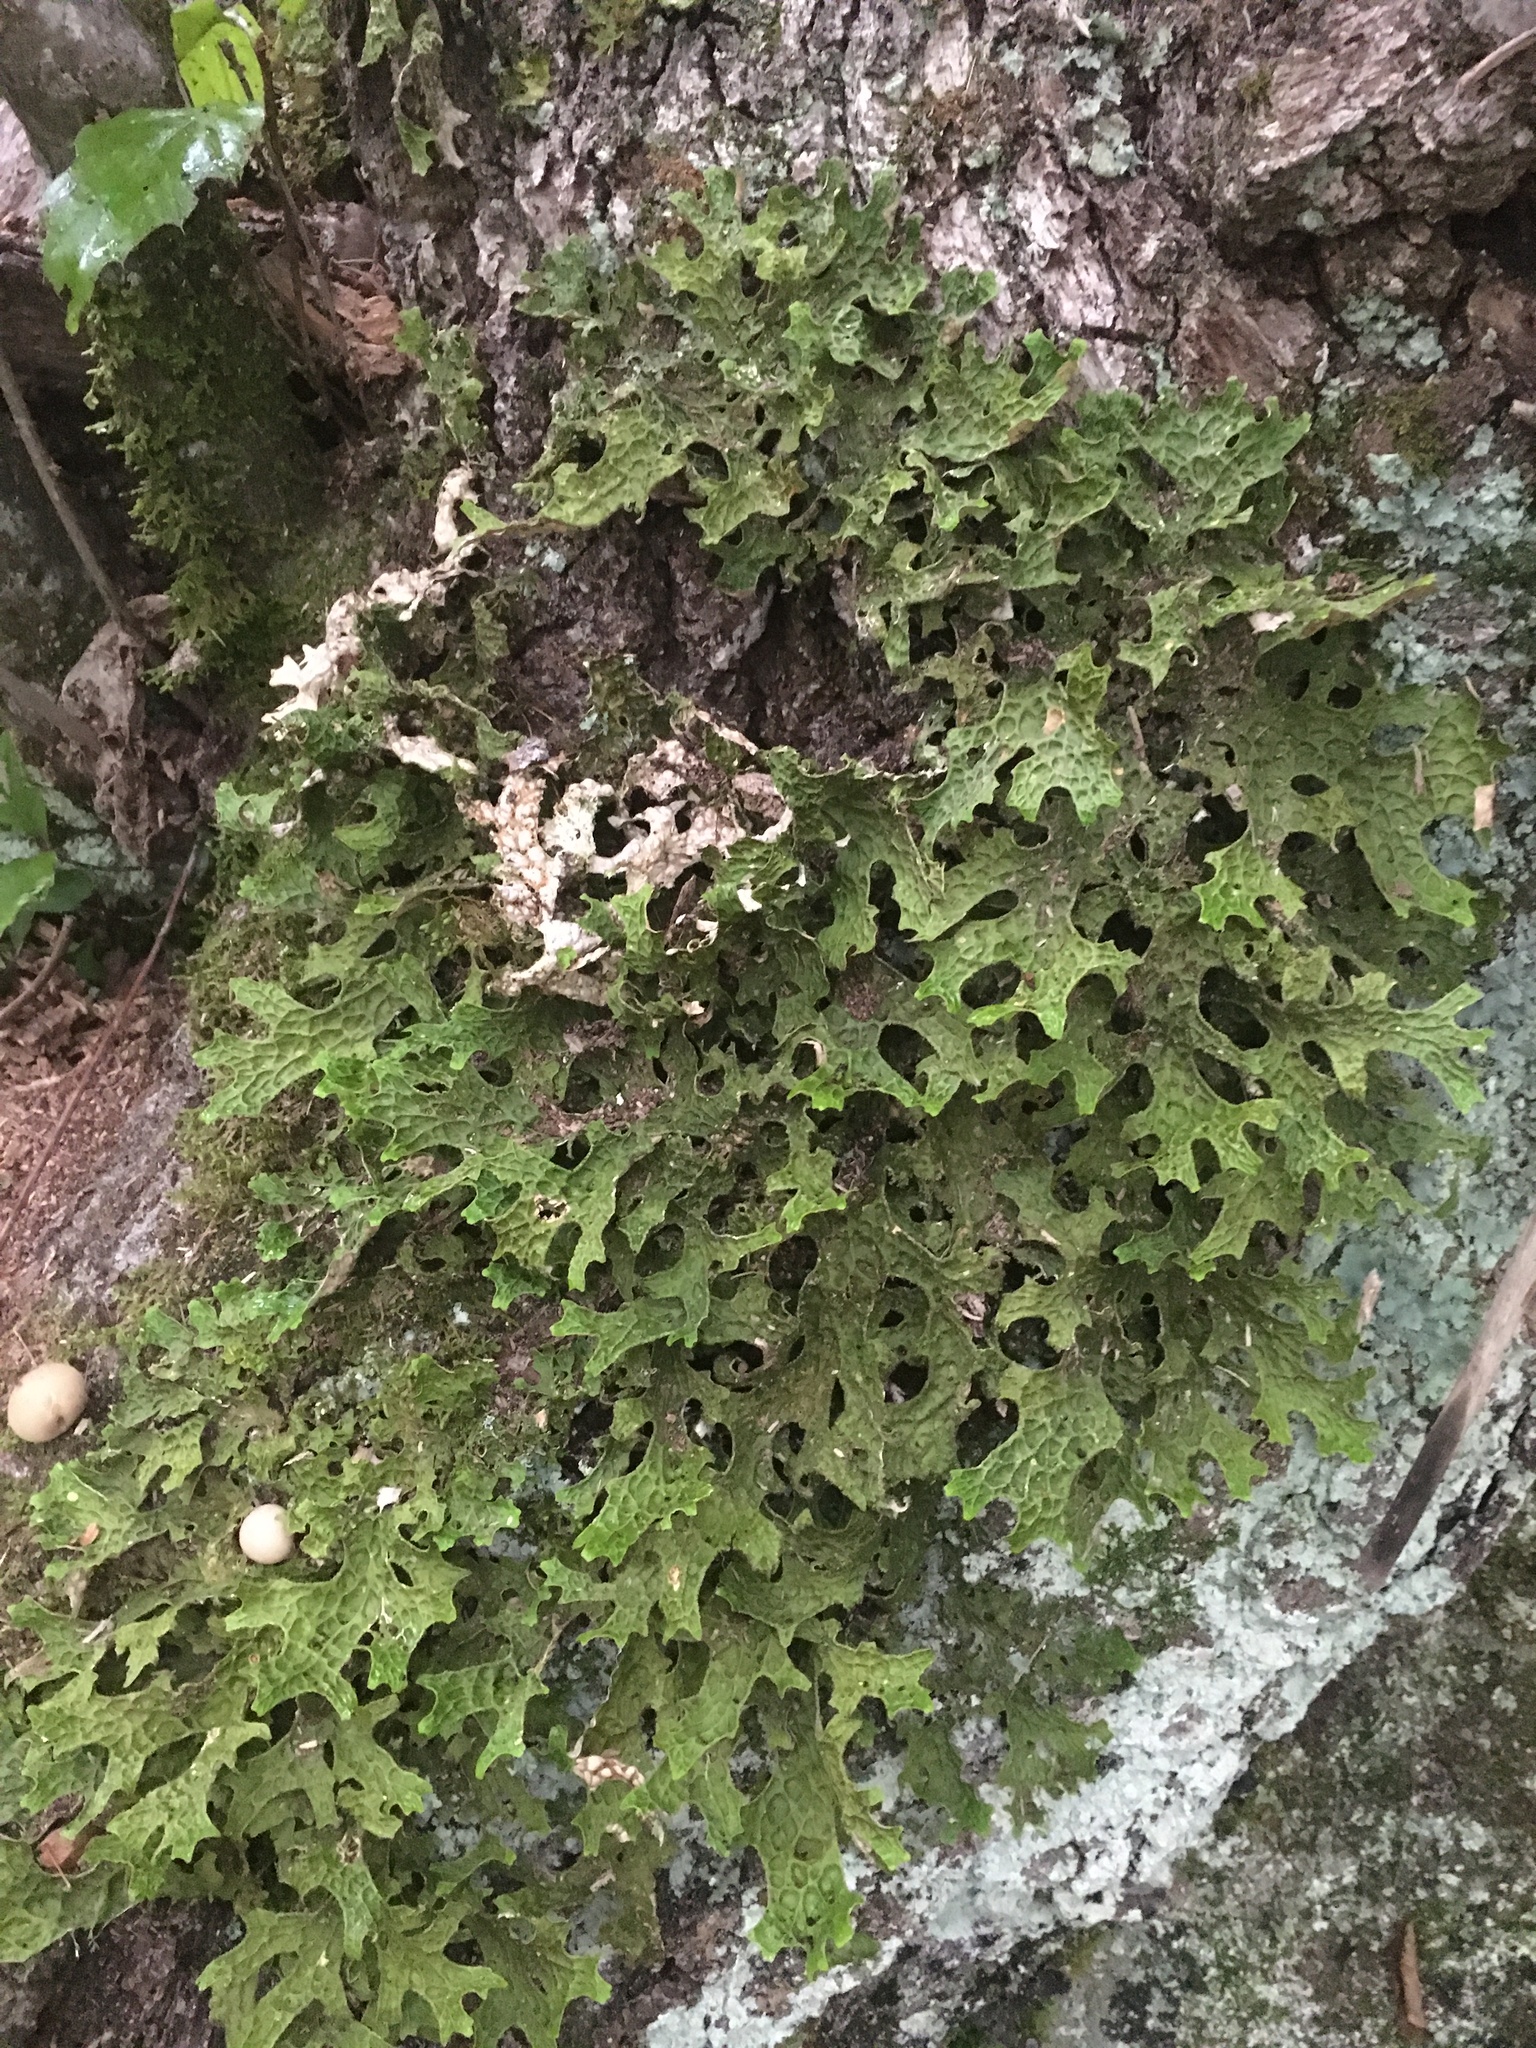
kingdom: Fungi
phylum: Ascomycota
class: Lecanoromycetes
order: Peltigerales
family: Lobariaceae
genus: Lobaria
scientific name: Lobaria pulmonaria
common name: Lungwort
